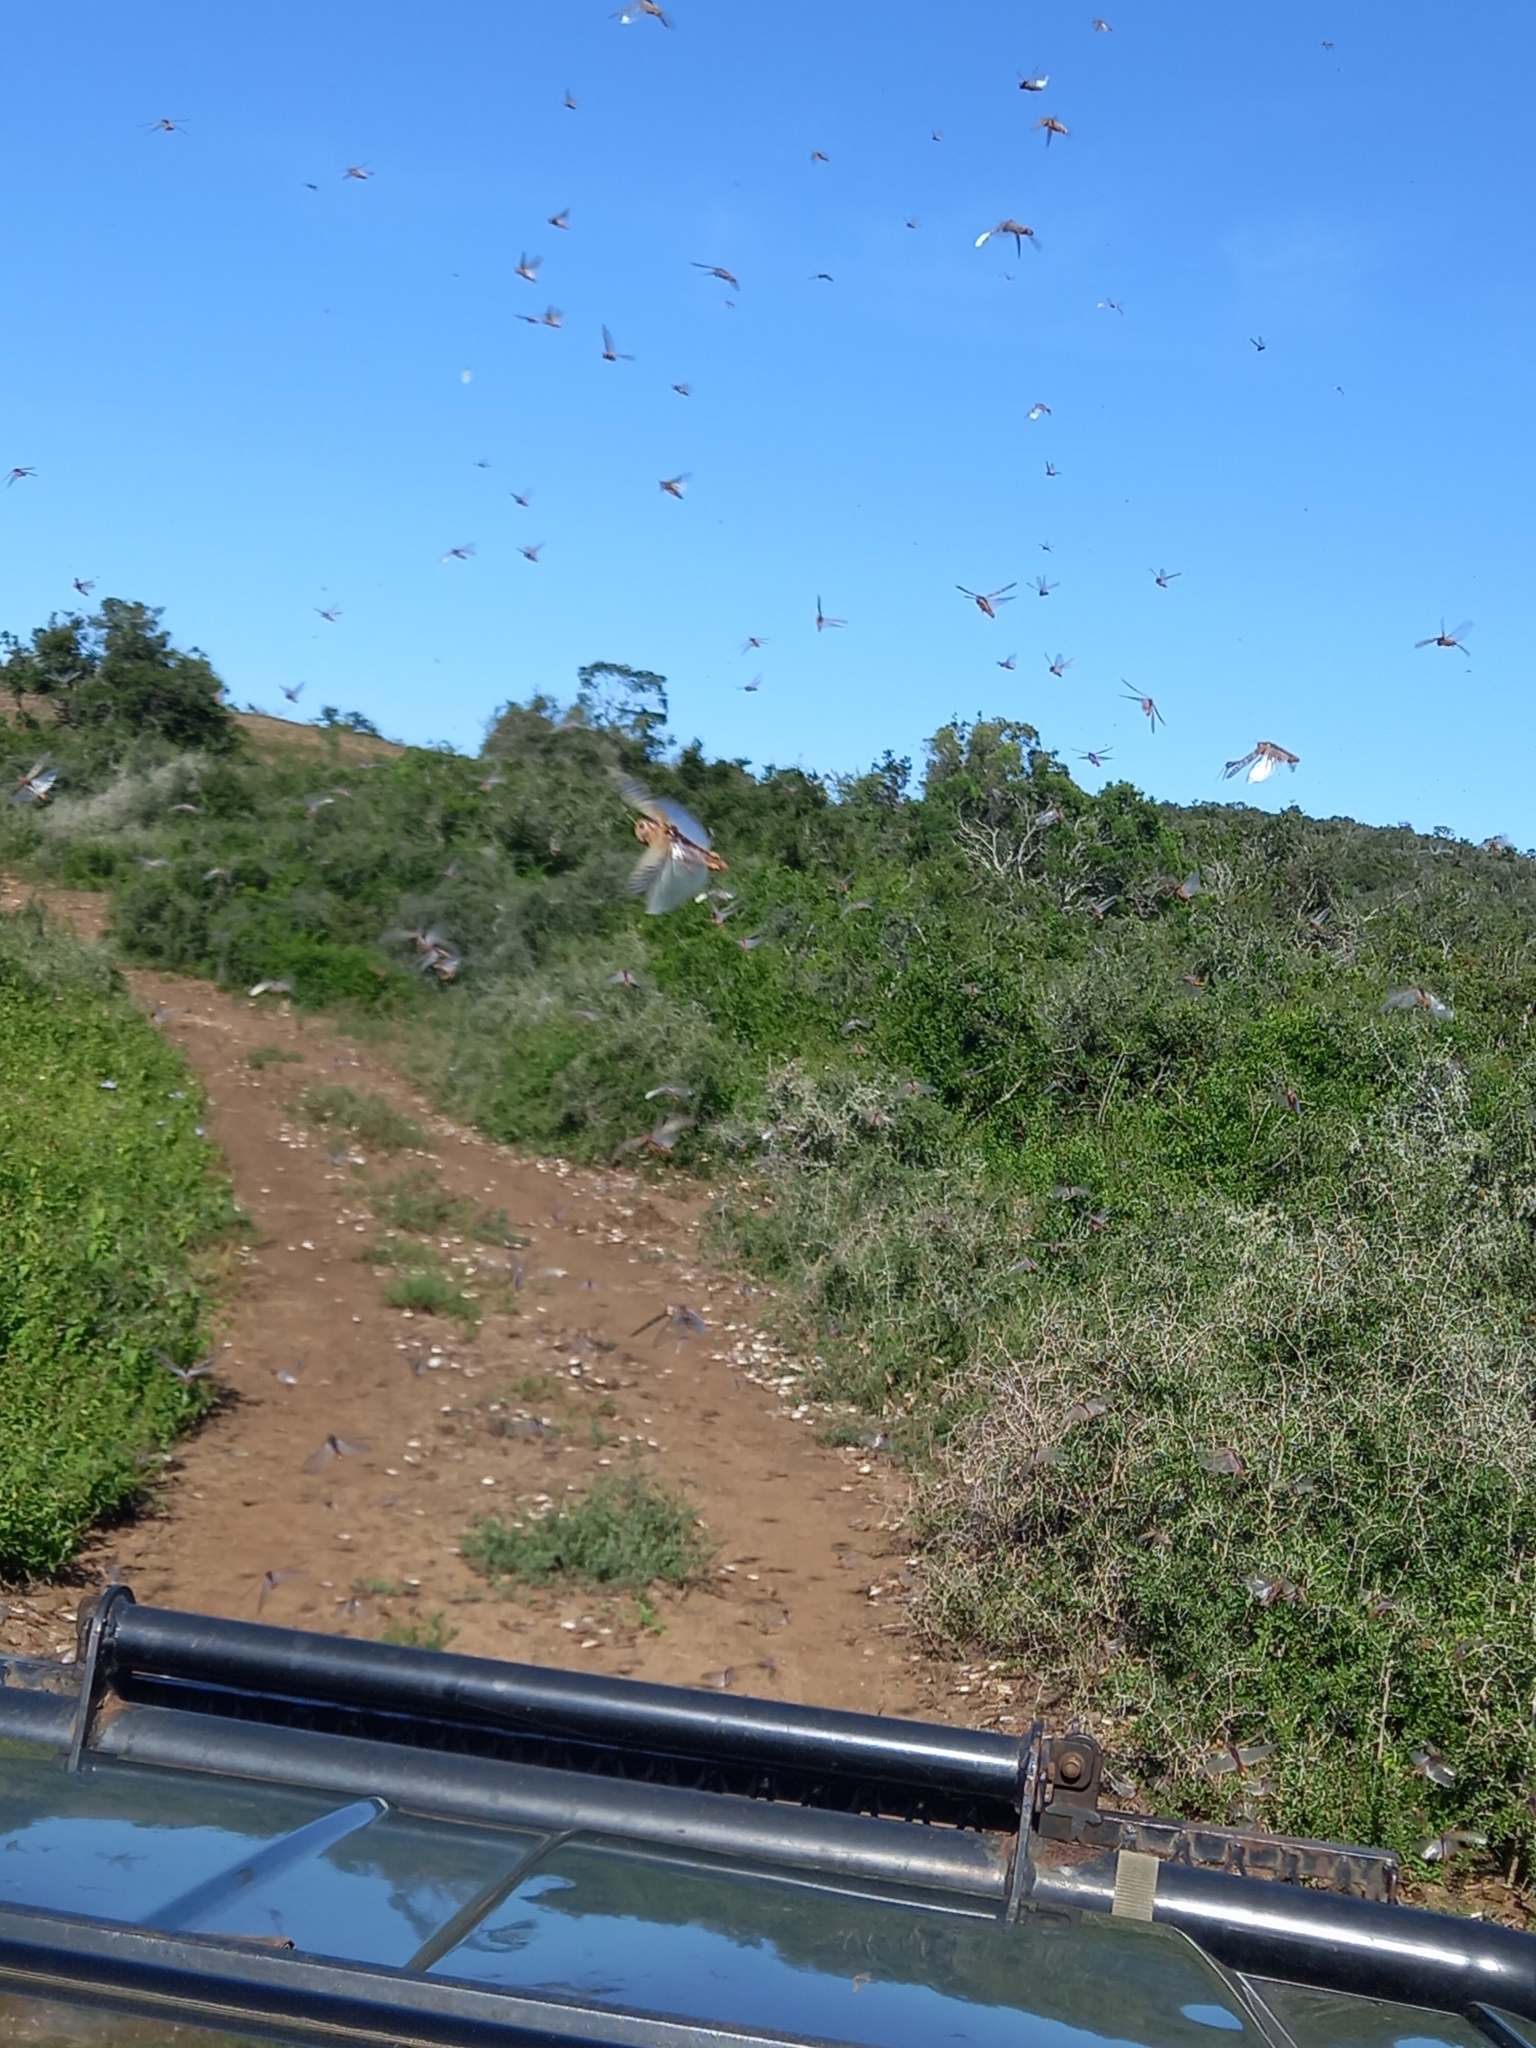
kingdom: Animalia
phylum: Arthropoda
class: Insecta
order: Orthoptera
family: Acrididae
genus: Locustana
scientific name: Locustana pardalina
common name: Brown locust
